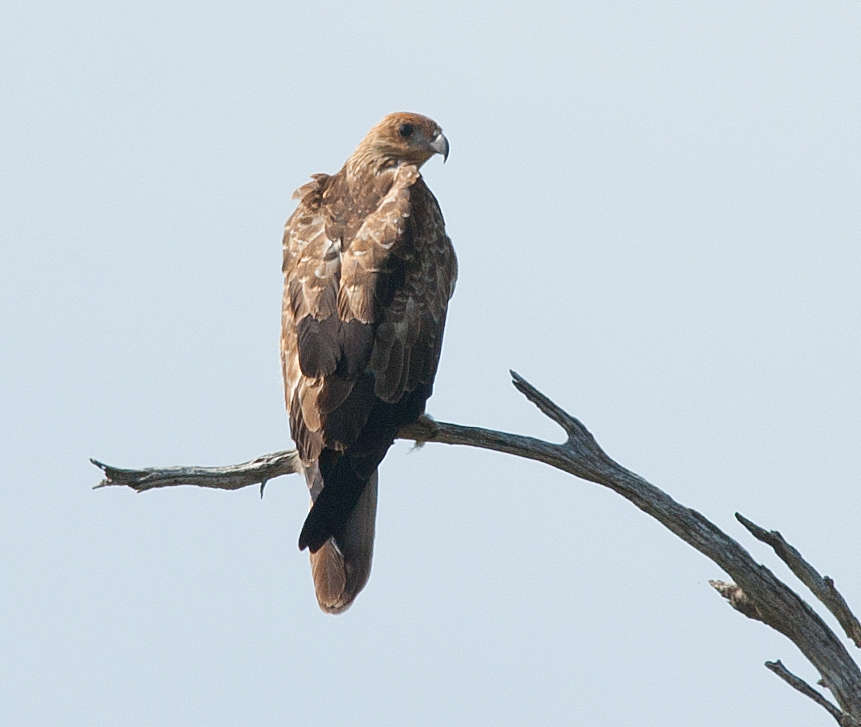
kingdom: Animalia
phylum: Chordata
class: Aves
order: Accipitriformes
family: Accipitridae
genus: Haliastur
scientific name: Haliastur sphenurus
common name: Whistling kite
